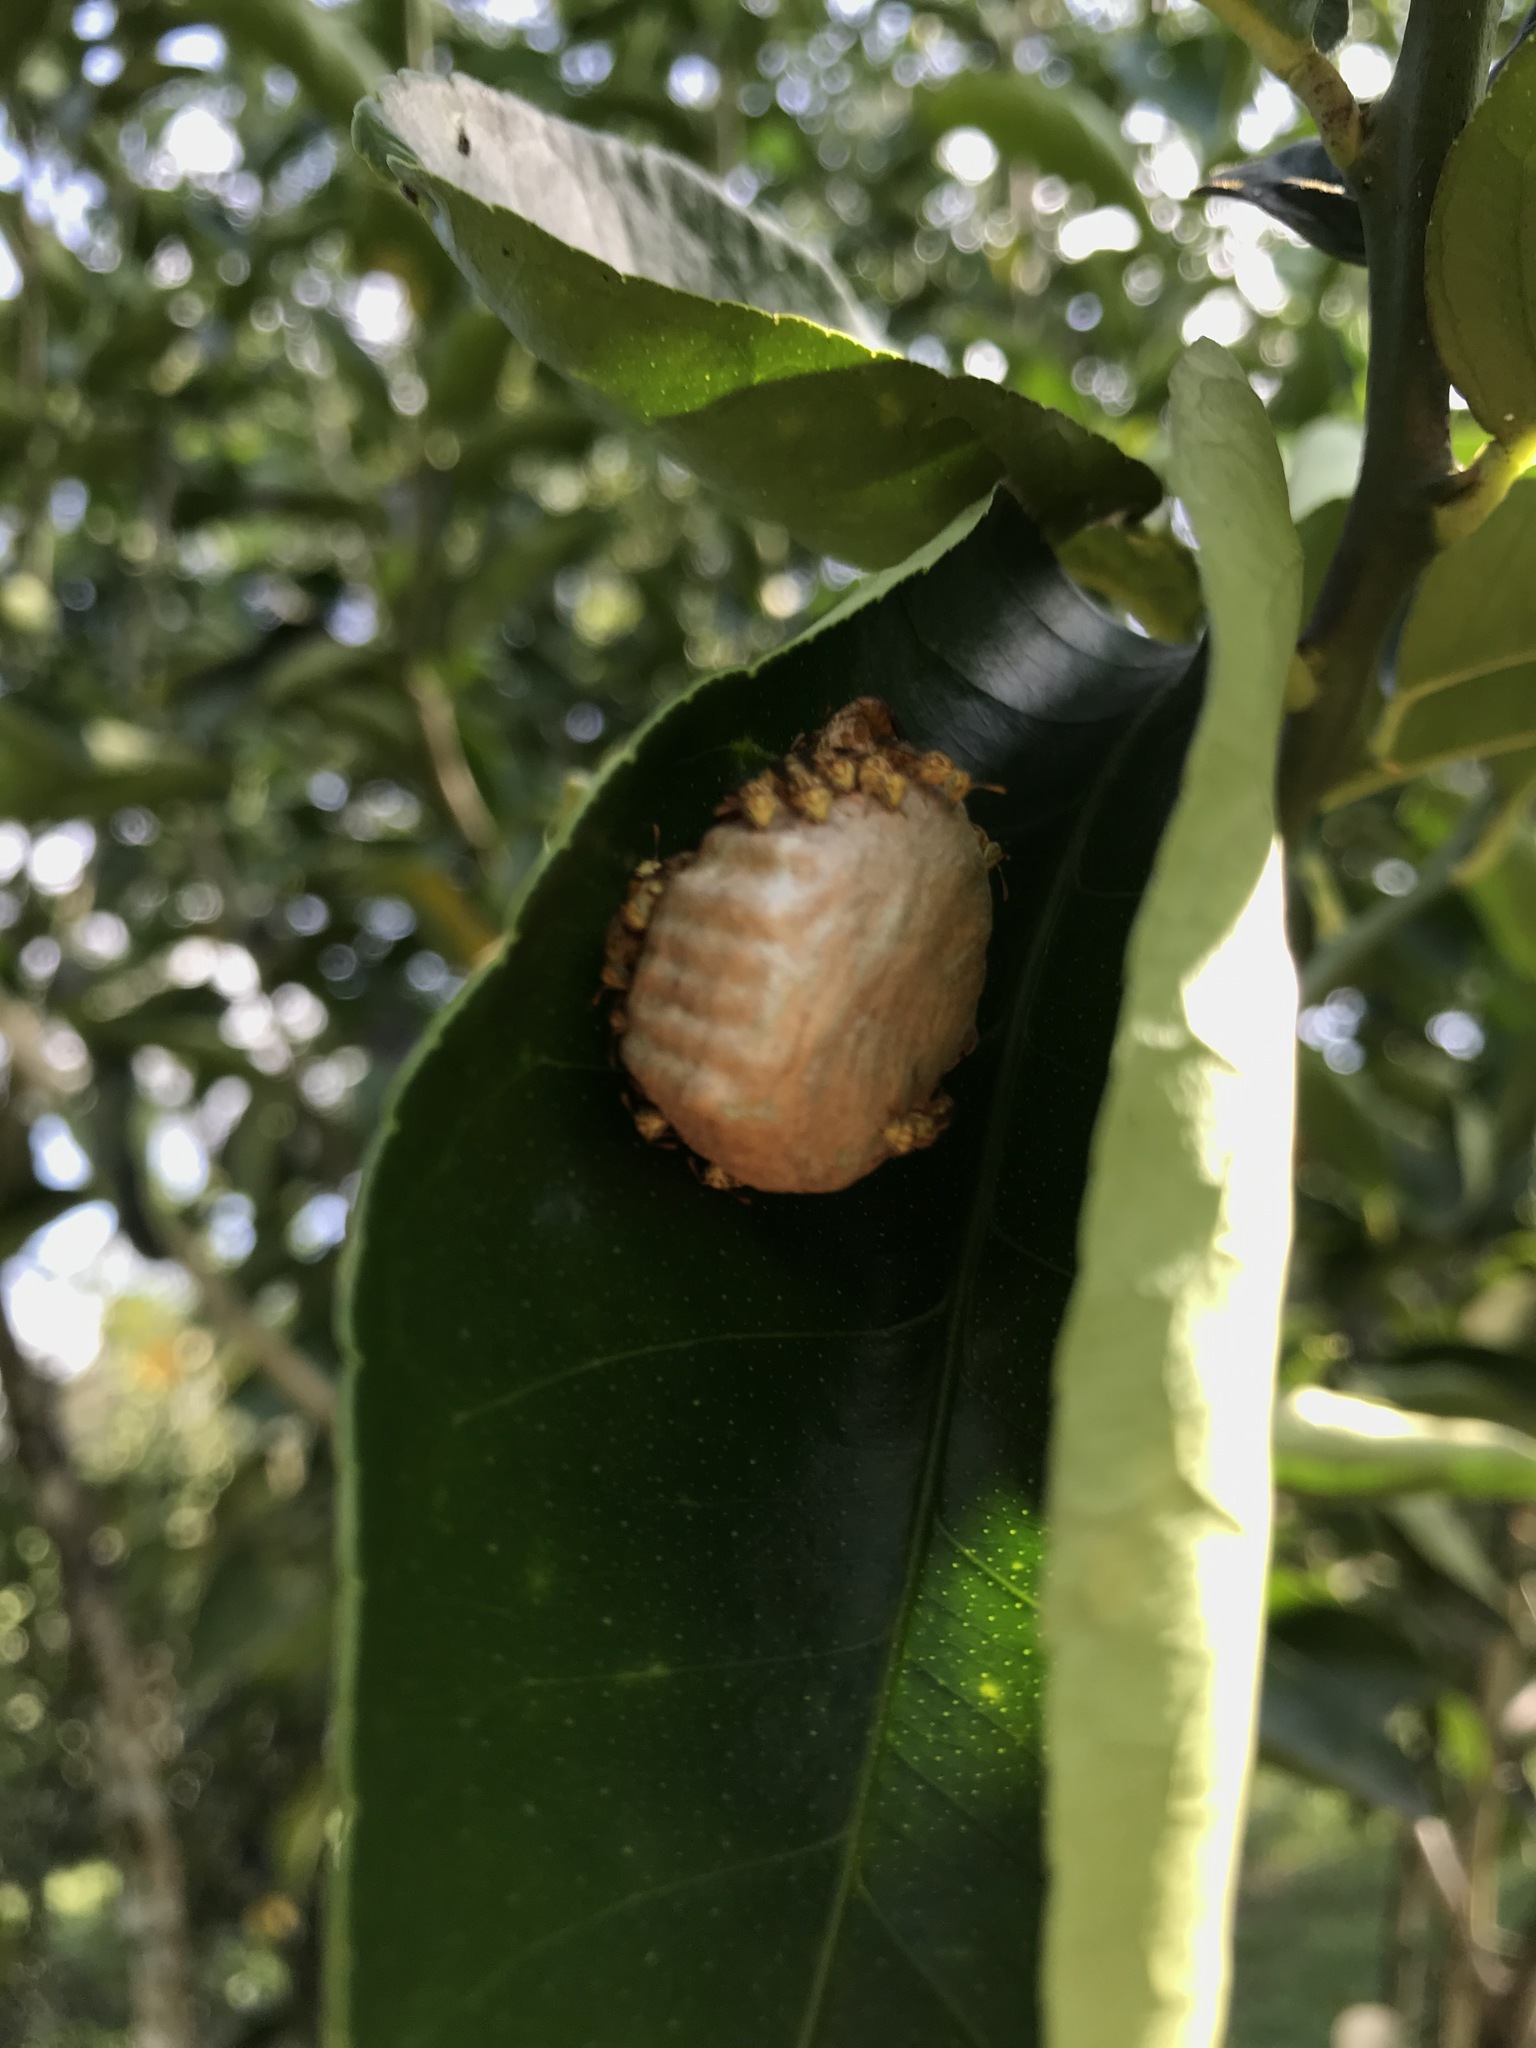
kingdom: Animalia
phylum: Arthropoda
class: Insecta
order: Hymenoptera
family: Vespidae
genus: Protopolybia
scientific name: Protopolybia potiguara
